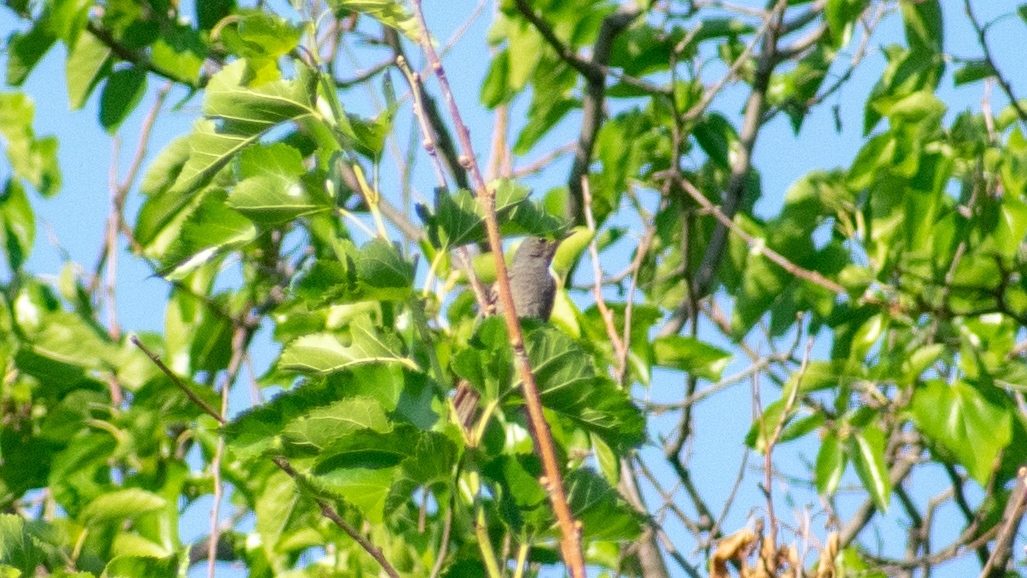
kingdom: Animalia
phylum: Chordata
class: Aves
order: Passeriformes
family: Muscicapidae
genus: Phoenicurus
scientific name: Phoenicurus ochruros
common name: Black redstart
